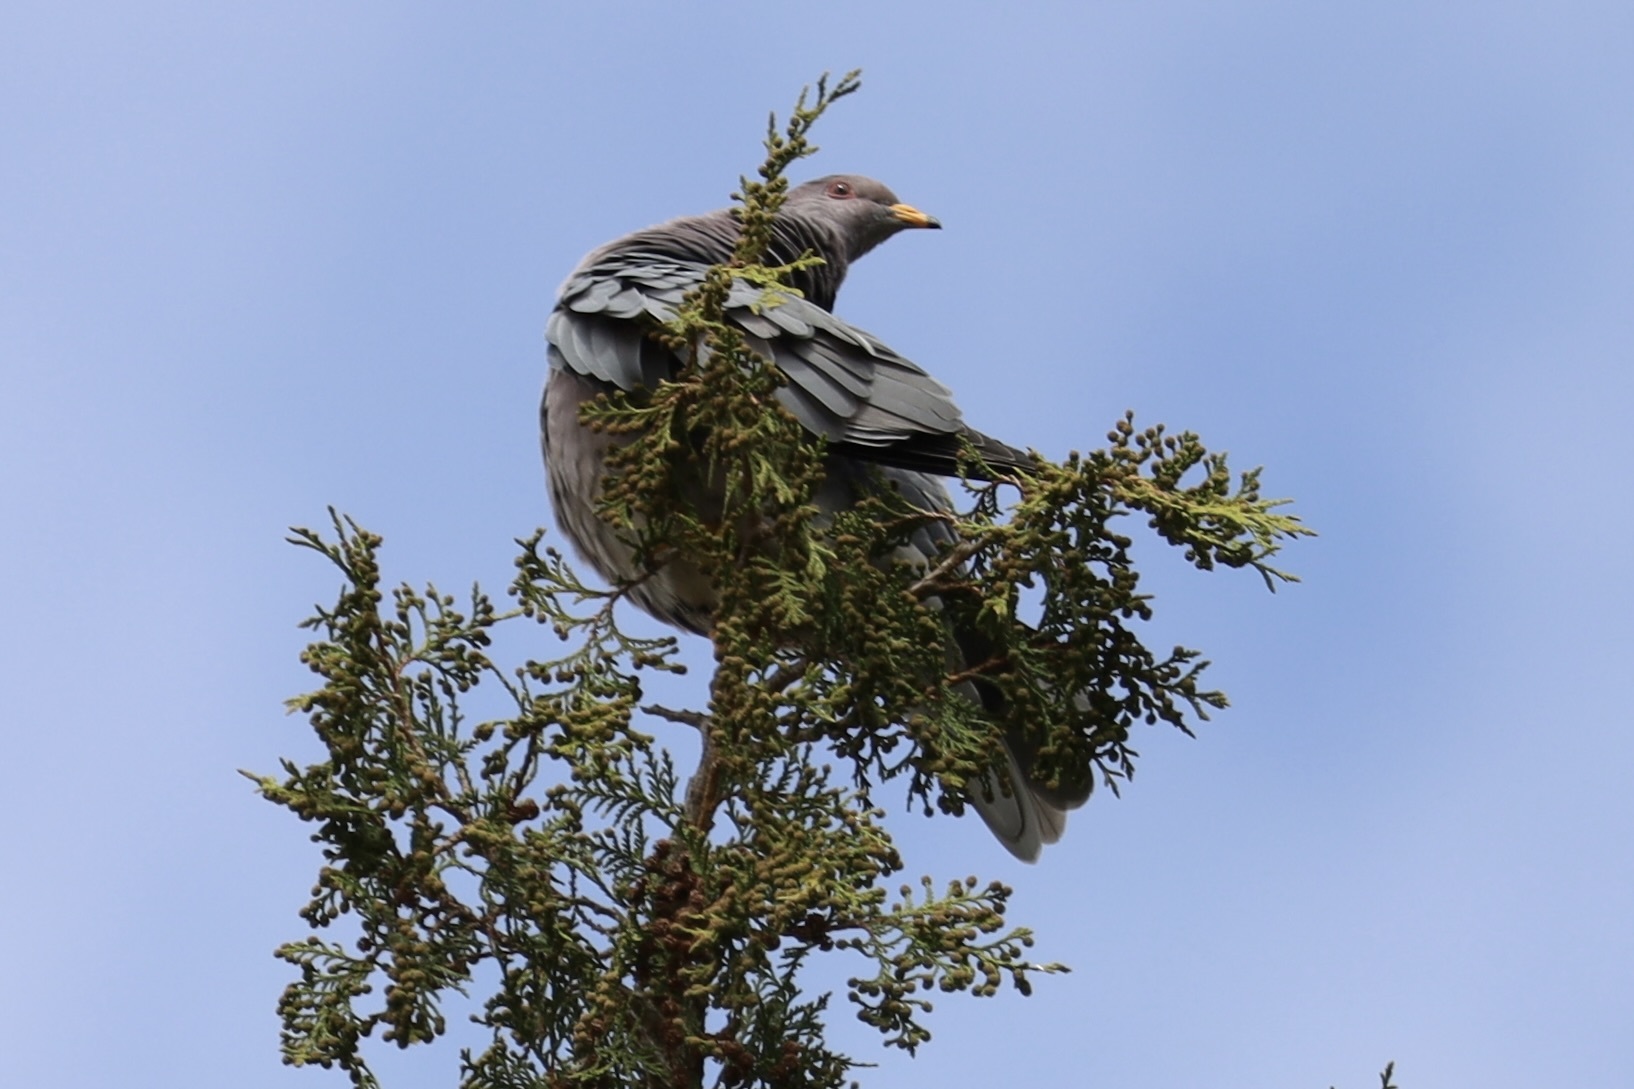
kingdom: Animalia
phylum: Chordata
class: Aves
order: Columbiformes
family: Columbidae
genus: Patagioenas
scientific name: Patagioenas fasciata
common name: Band-tailed pigeon
